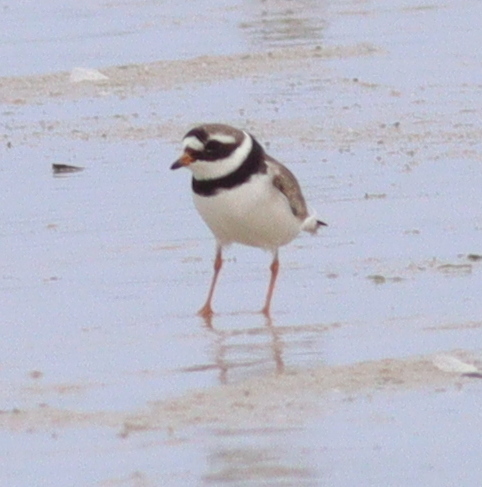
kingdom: Animalia
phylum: Chordata
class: Aves
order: Charadriiformes
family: Charadriidae
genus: Charadrius
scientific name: Charadrius hiaticula
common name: Common ringed plover
